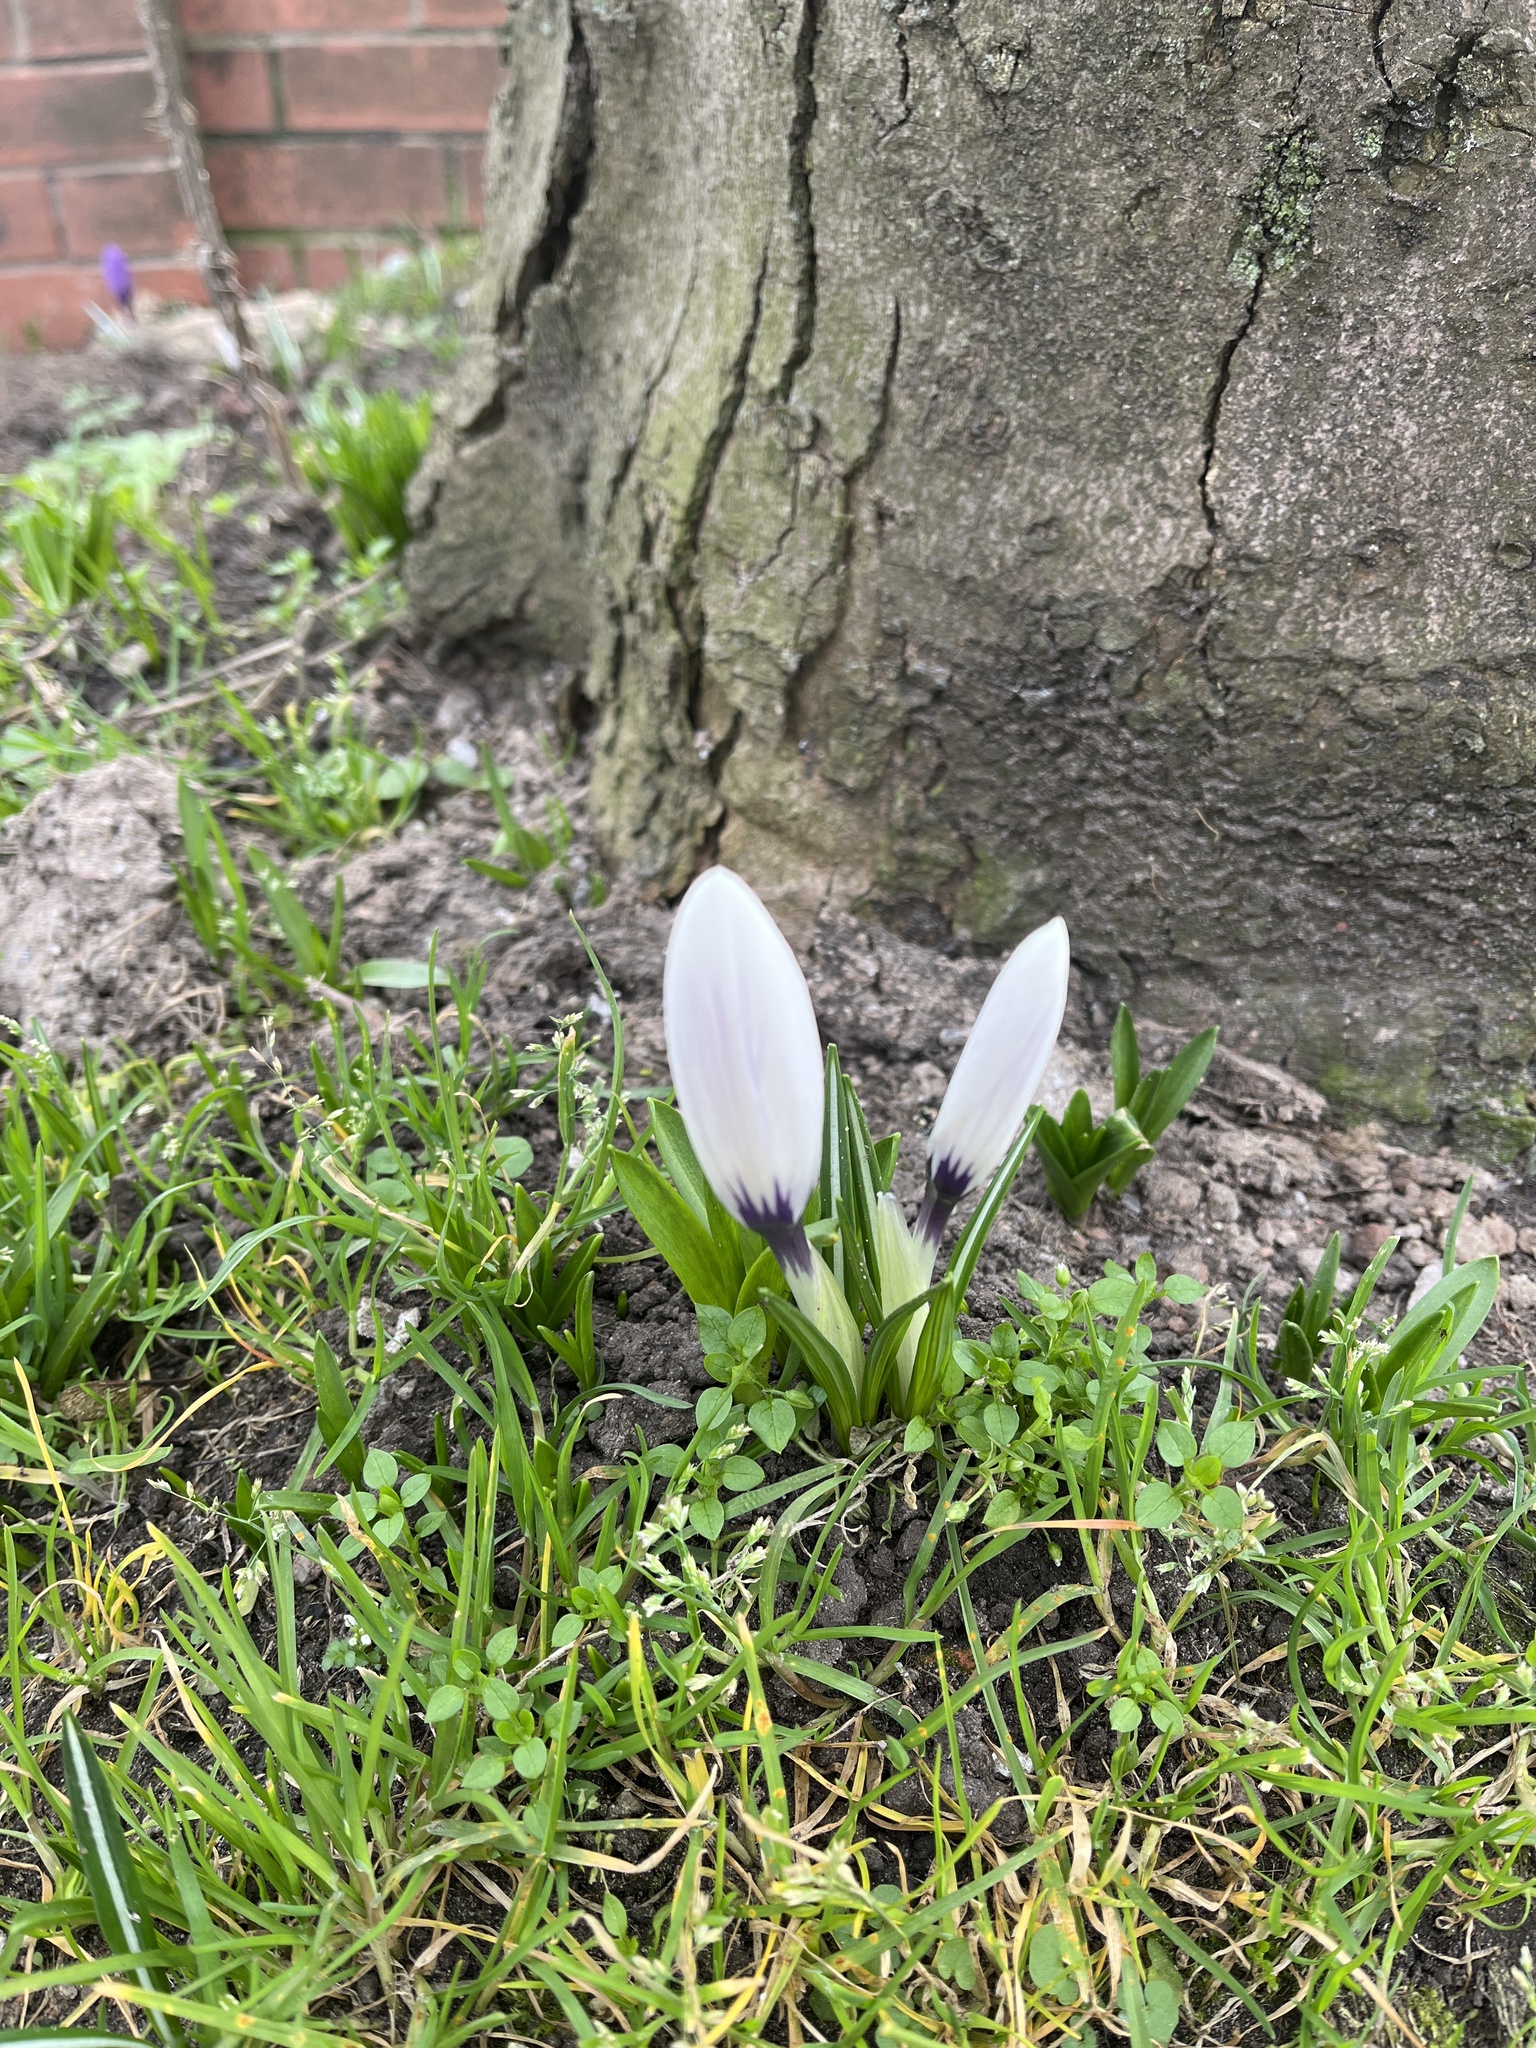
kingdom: Plantae
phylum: Tracheophyta
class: Liliopsida
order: Asparagales
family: Iridaceae
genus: Crocus
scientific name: Crocus neapolitanus
